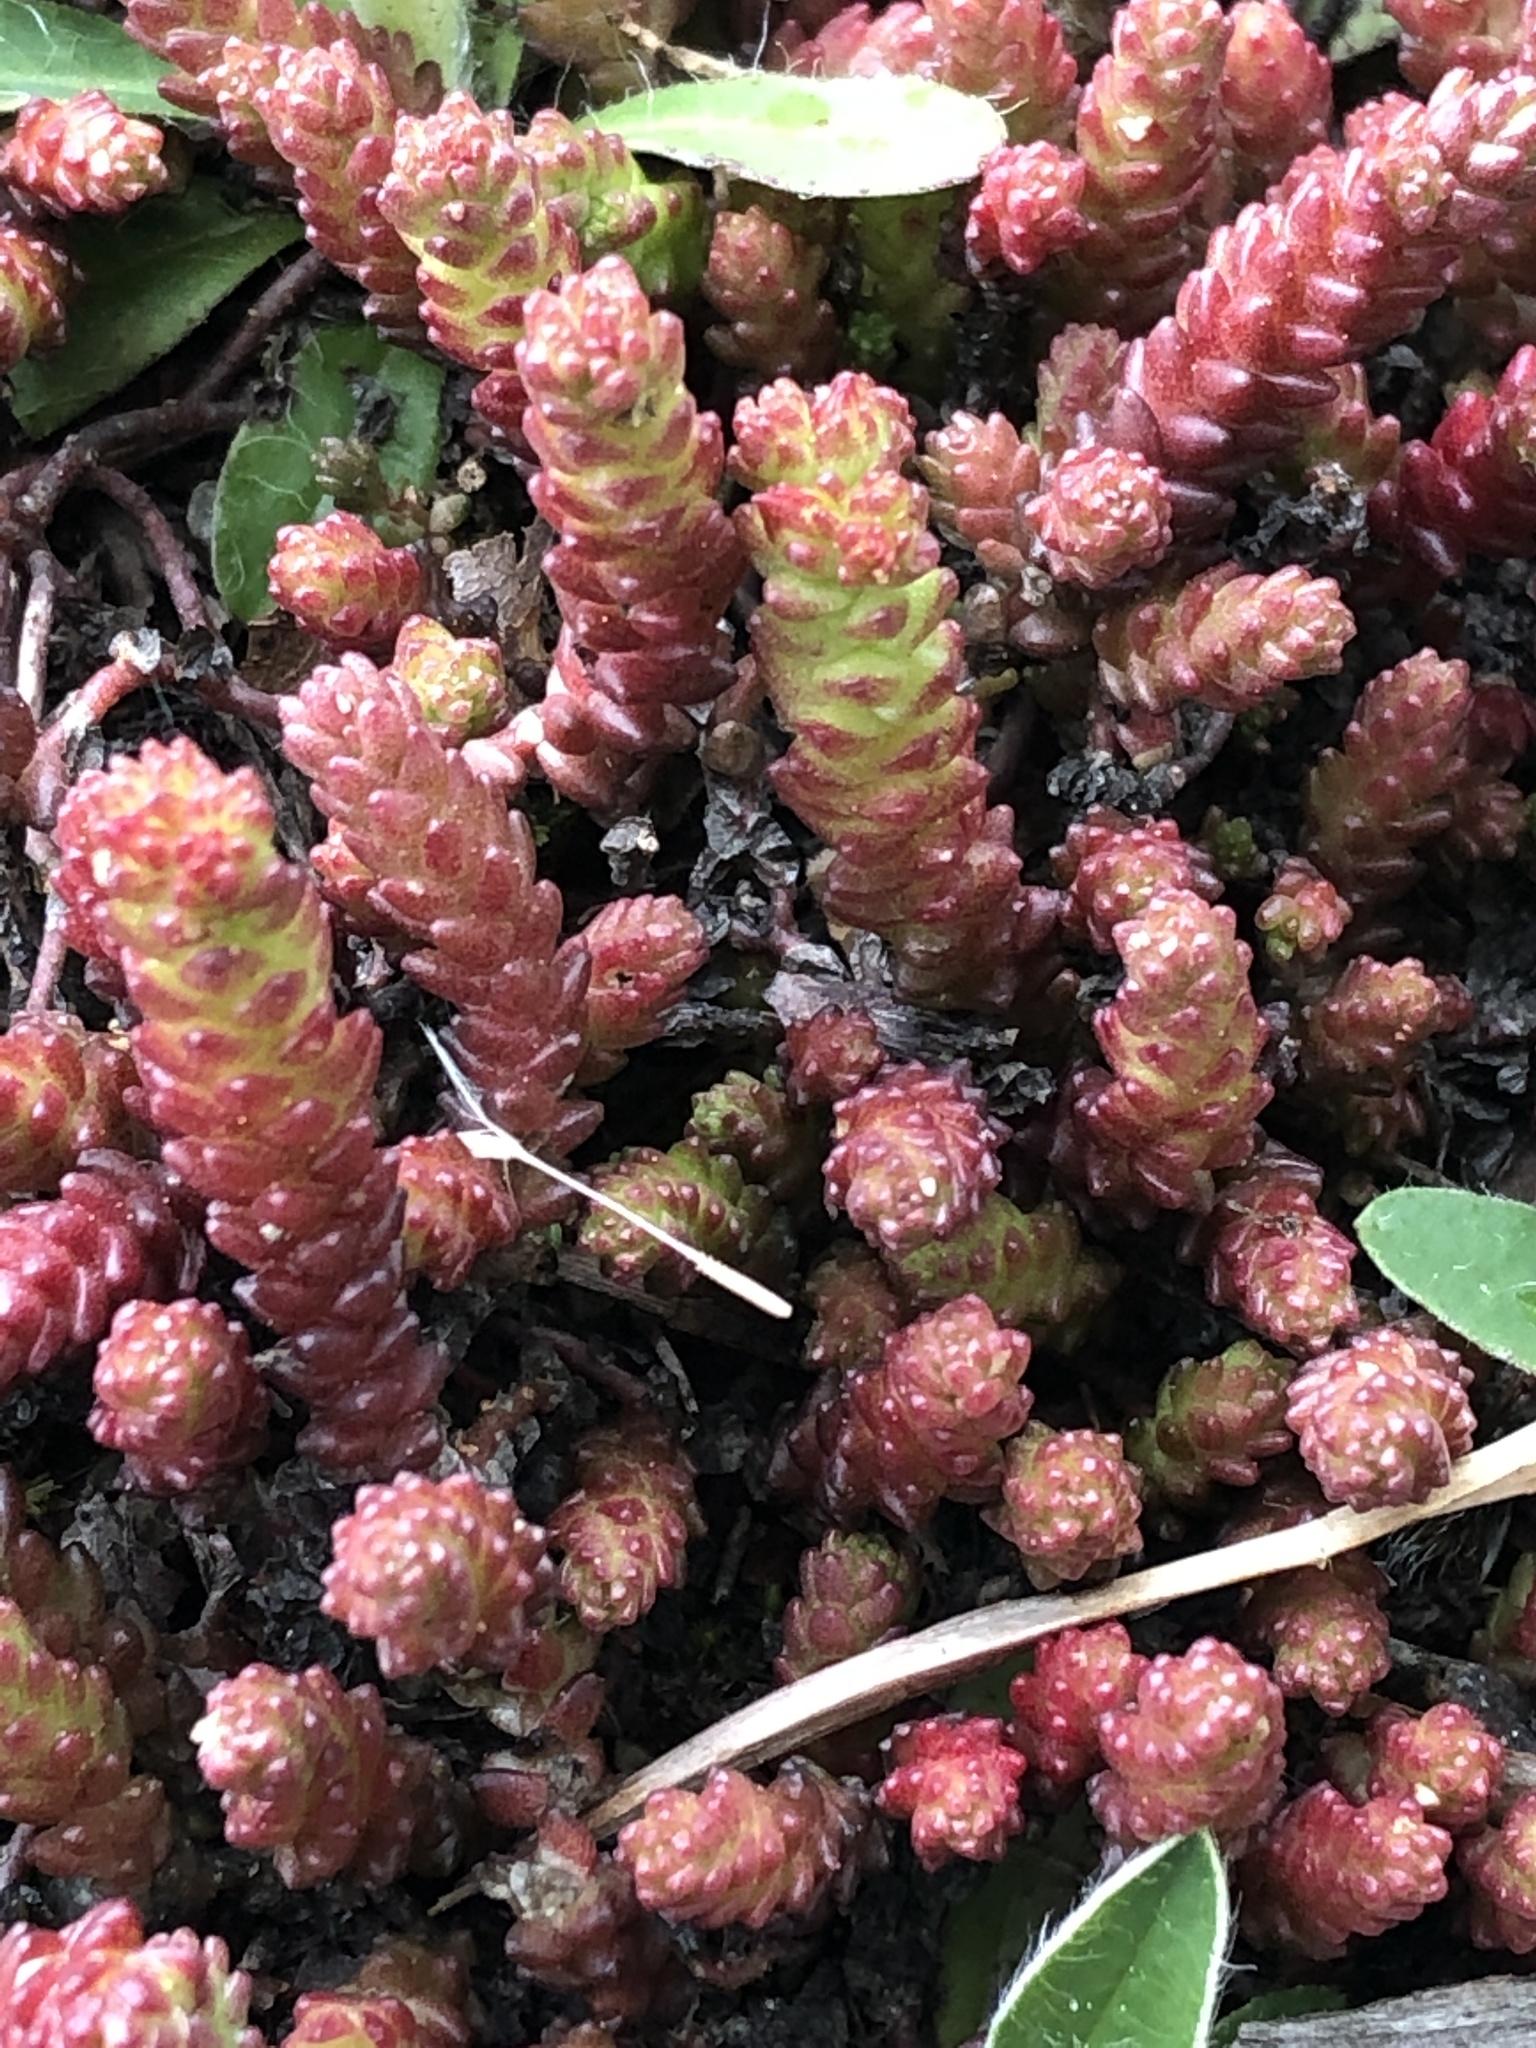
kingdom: Plantae
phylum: Tracheophyta
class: Magnoliopsida
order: Saxifragales
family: Crassulaceae
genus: Sedum
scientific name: Sedum acre
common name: Biting stonecrop
